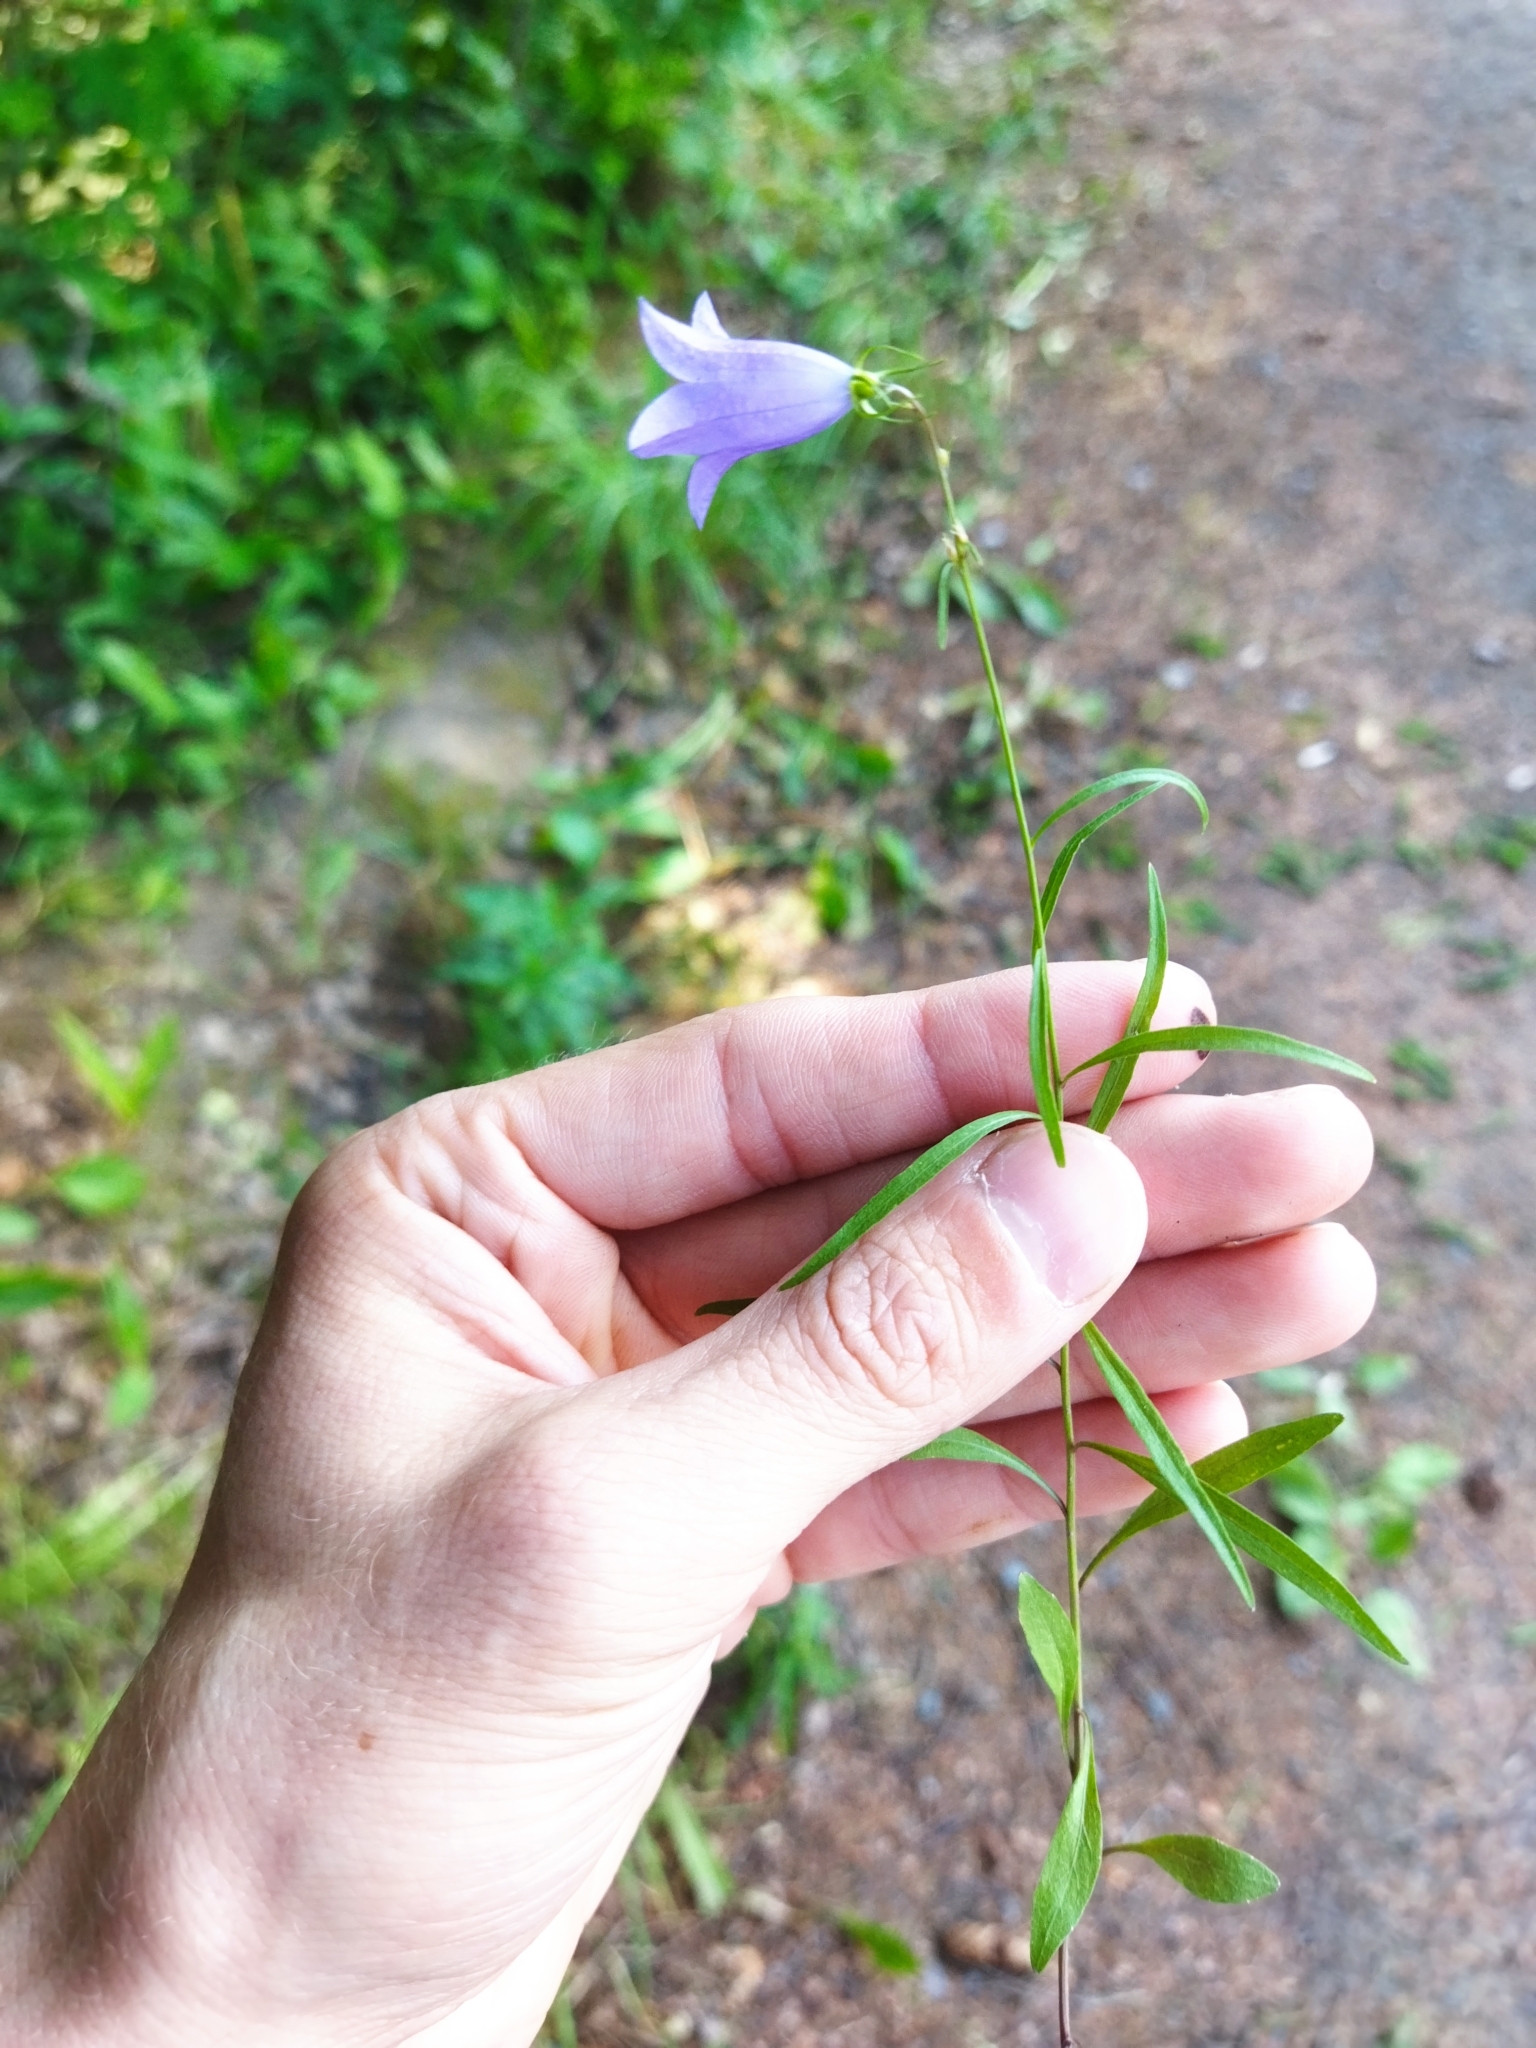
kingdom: Plantae
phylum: Tracheophyta
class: Magnoliopsida
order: Asterales
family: Campanulaceae
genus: Campanula
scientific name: Campanula rotundifolia
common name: Harebell
